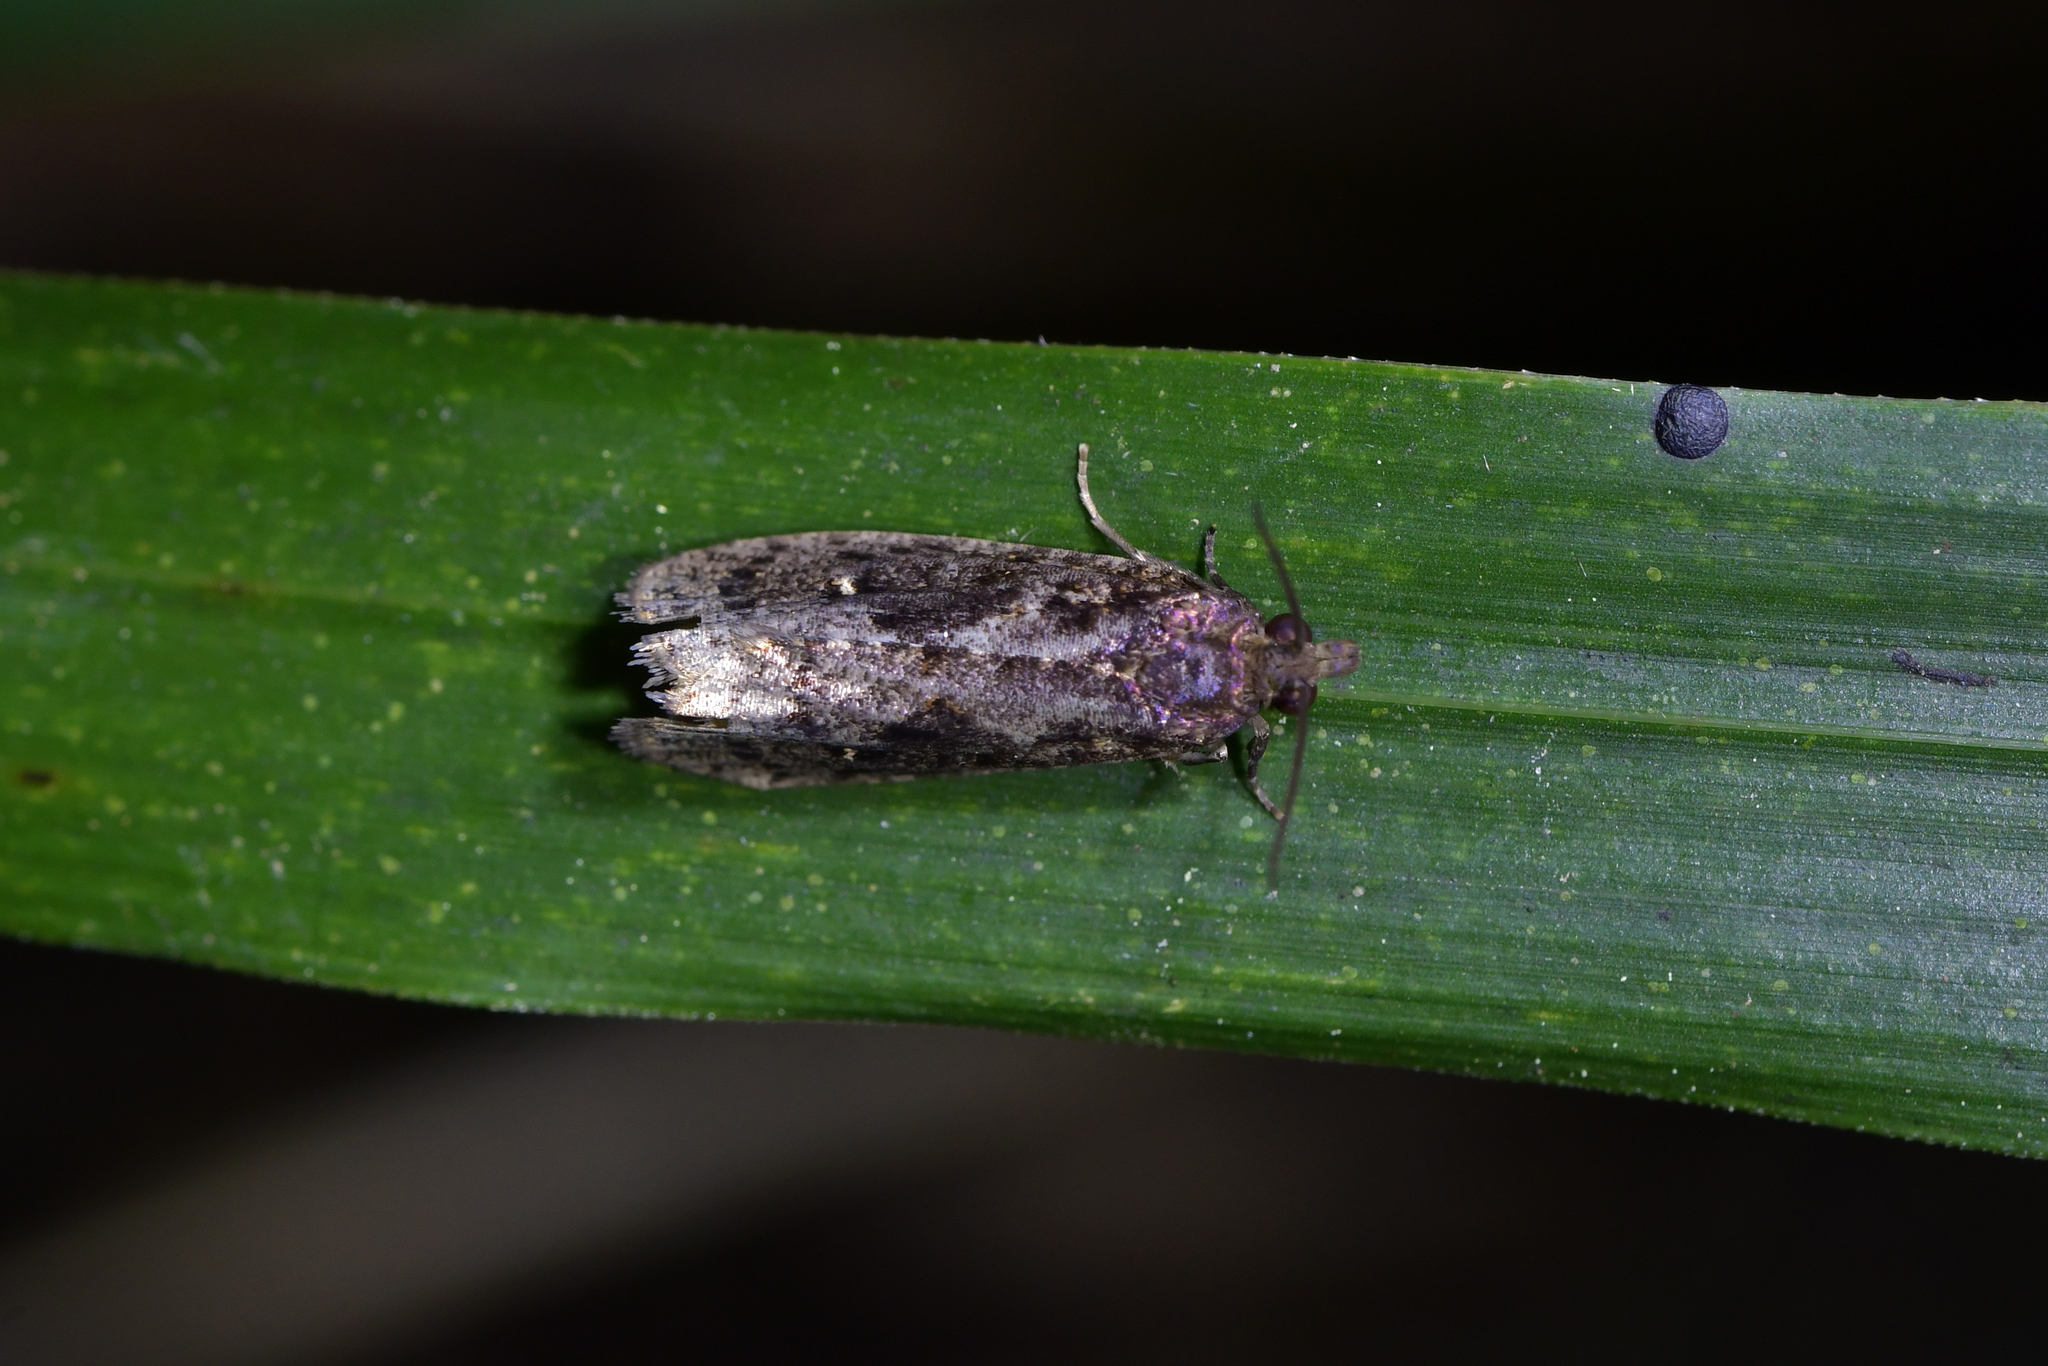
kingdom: Animalia
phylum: Arthropoda
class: Insecta
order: Lepidoptera
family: Tortricidae
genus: Cryptaspasma
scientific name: Cryptaspasma querula
